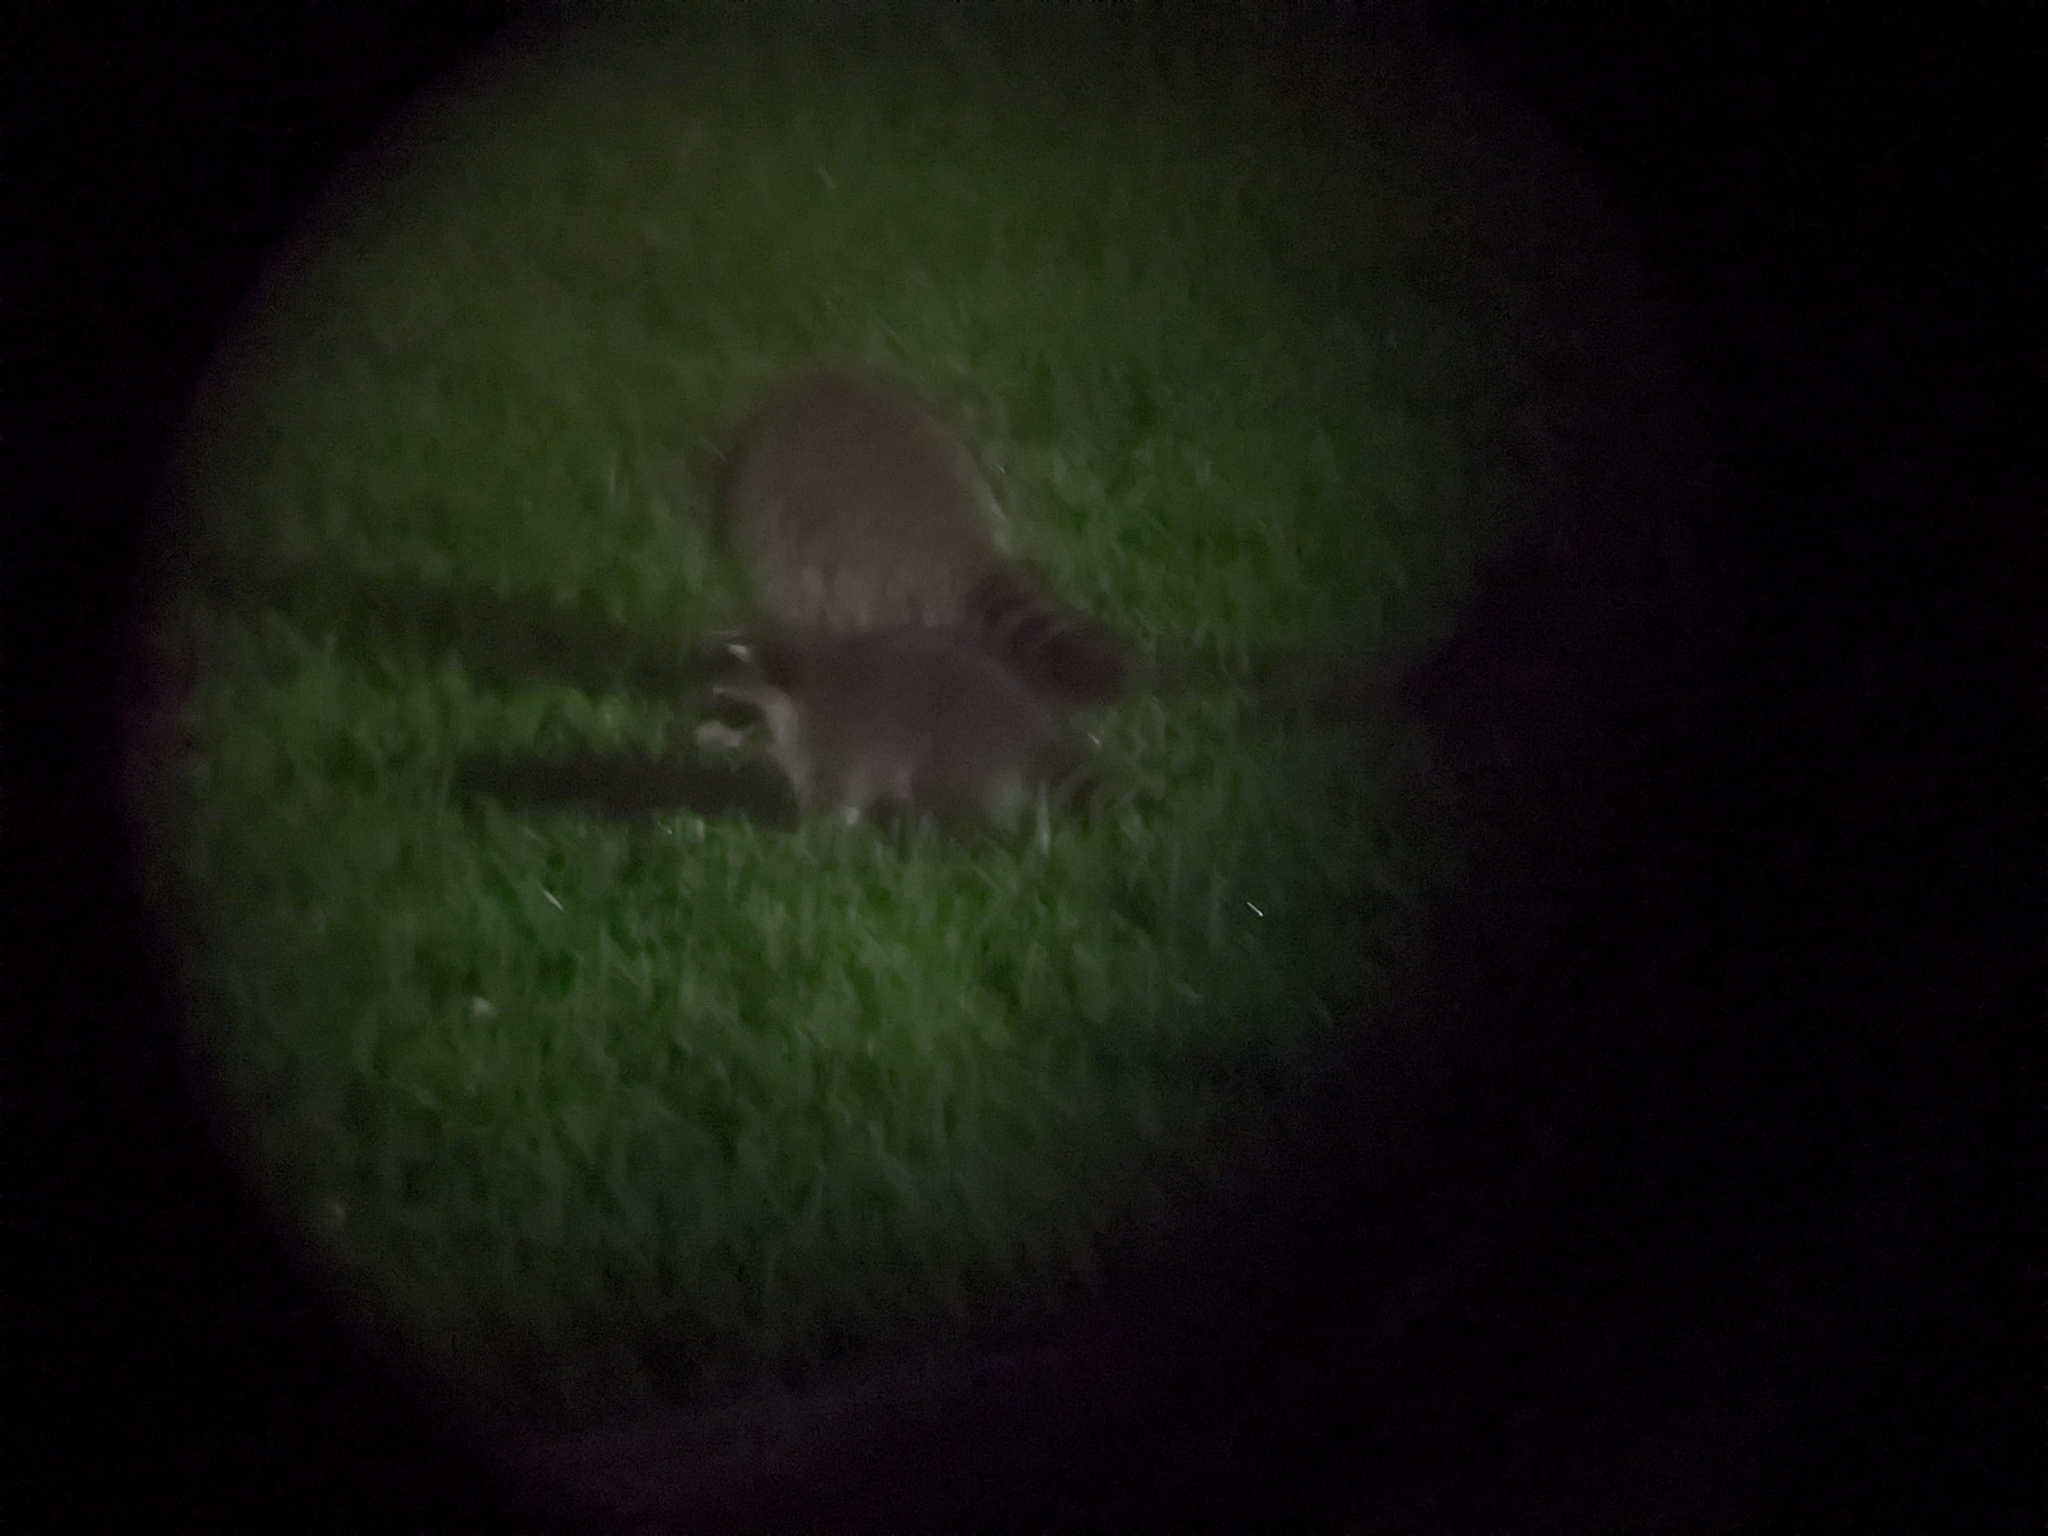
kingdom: Animalia
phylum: Chordata
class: Mammalia
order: Carnivora
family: Procyonidae
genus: Procyon
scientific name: Procyon lotor
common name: Raccoon
